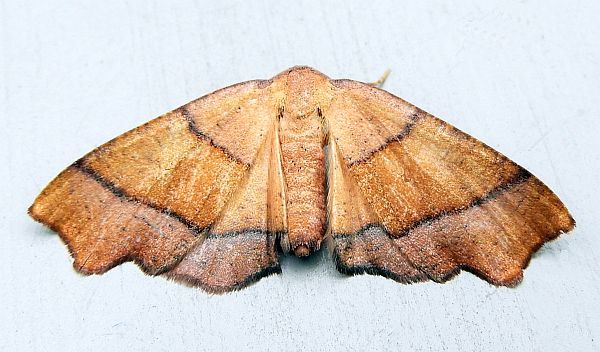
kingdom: Animalia
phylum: Arthropoda
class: Insecta
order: Lepidoptera
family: Geometridae
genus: Plagodis
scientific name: Plagodis phlogosaria
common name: Straight-lined plagodis
